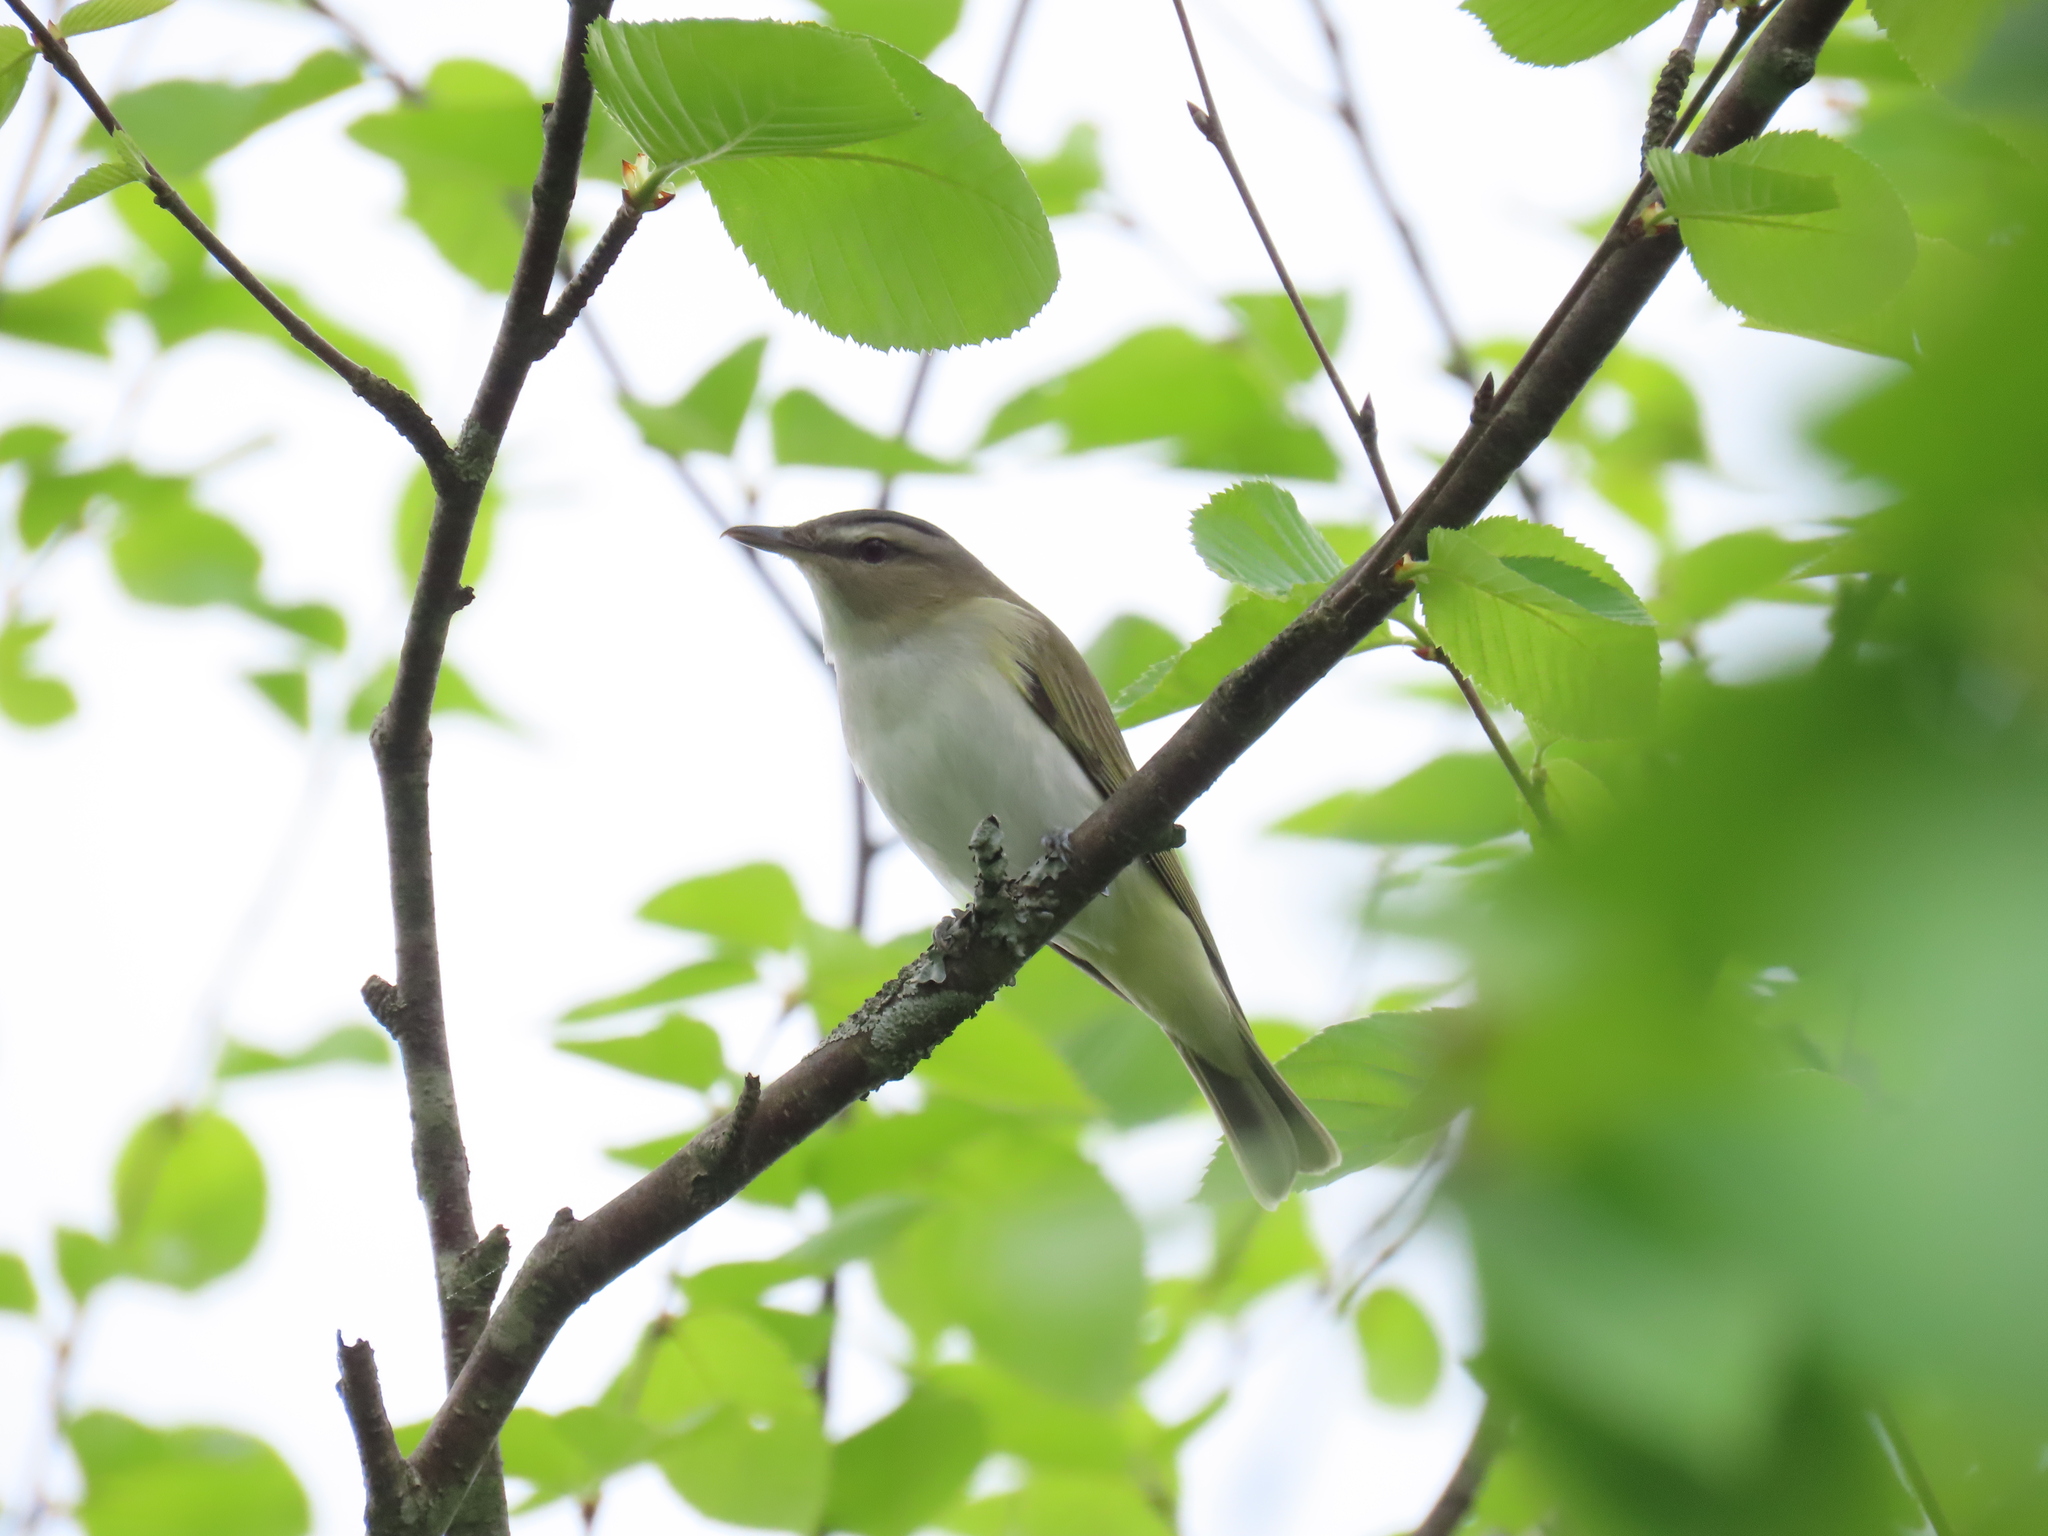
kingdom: Animalia
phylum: Chordata
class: Aves
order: Passeriformes
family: Vireonidae
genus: Vireo
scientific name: Vireo olivaceus
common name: Red-eyed vireo
